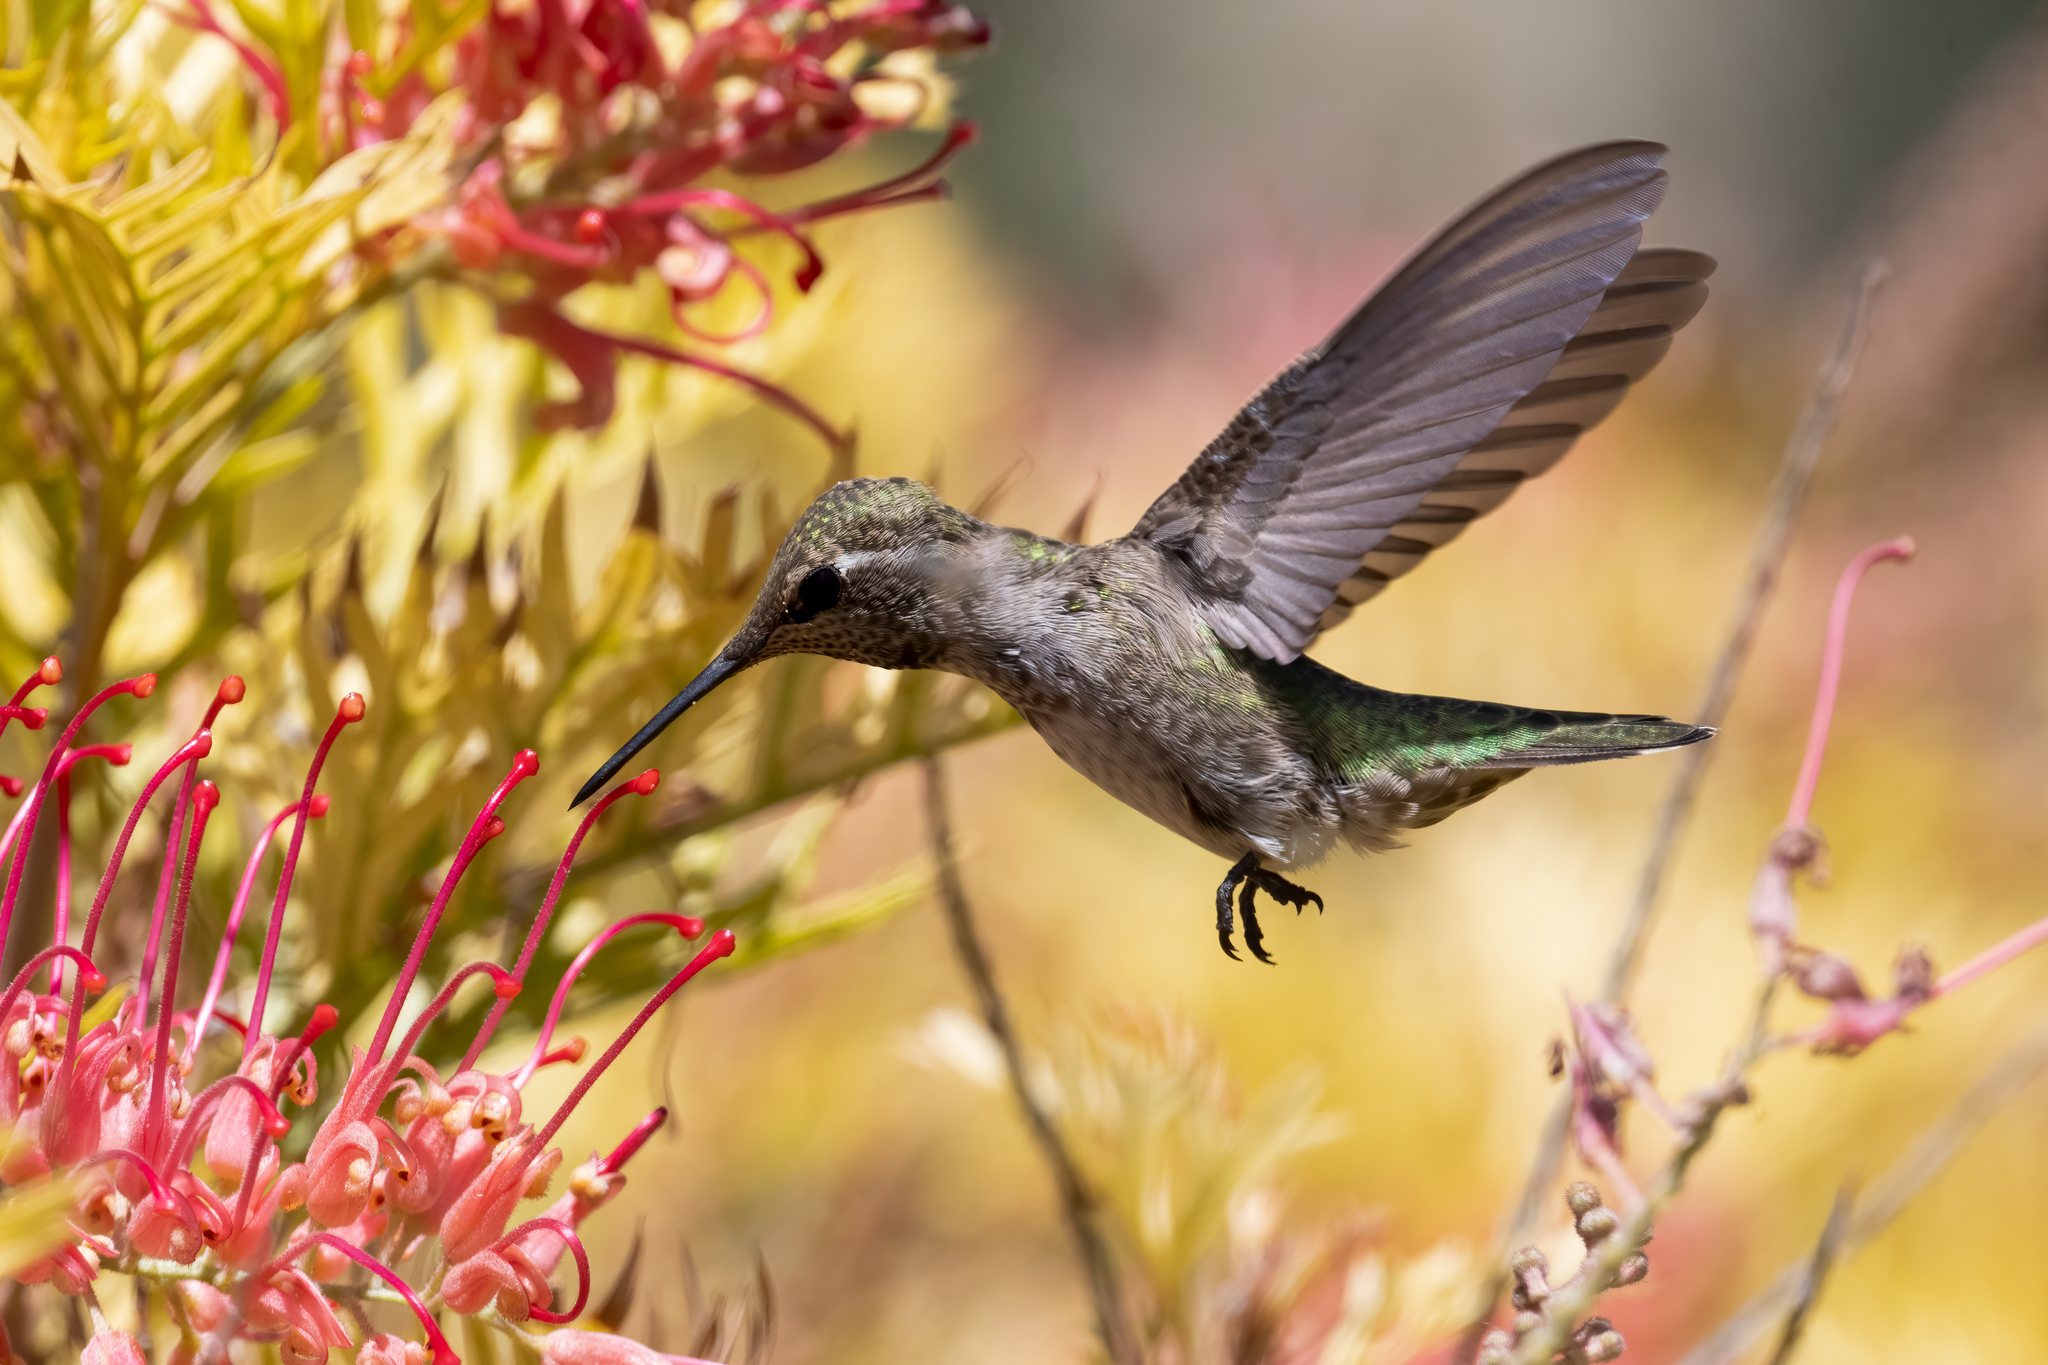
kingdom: Animalia
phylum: Chordata
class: Aves
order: Apodiformes
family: Trochilidae
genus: Calypte
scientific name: Calypte anna
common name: Anna's hummingbird
